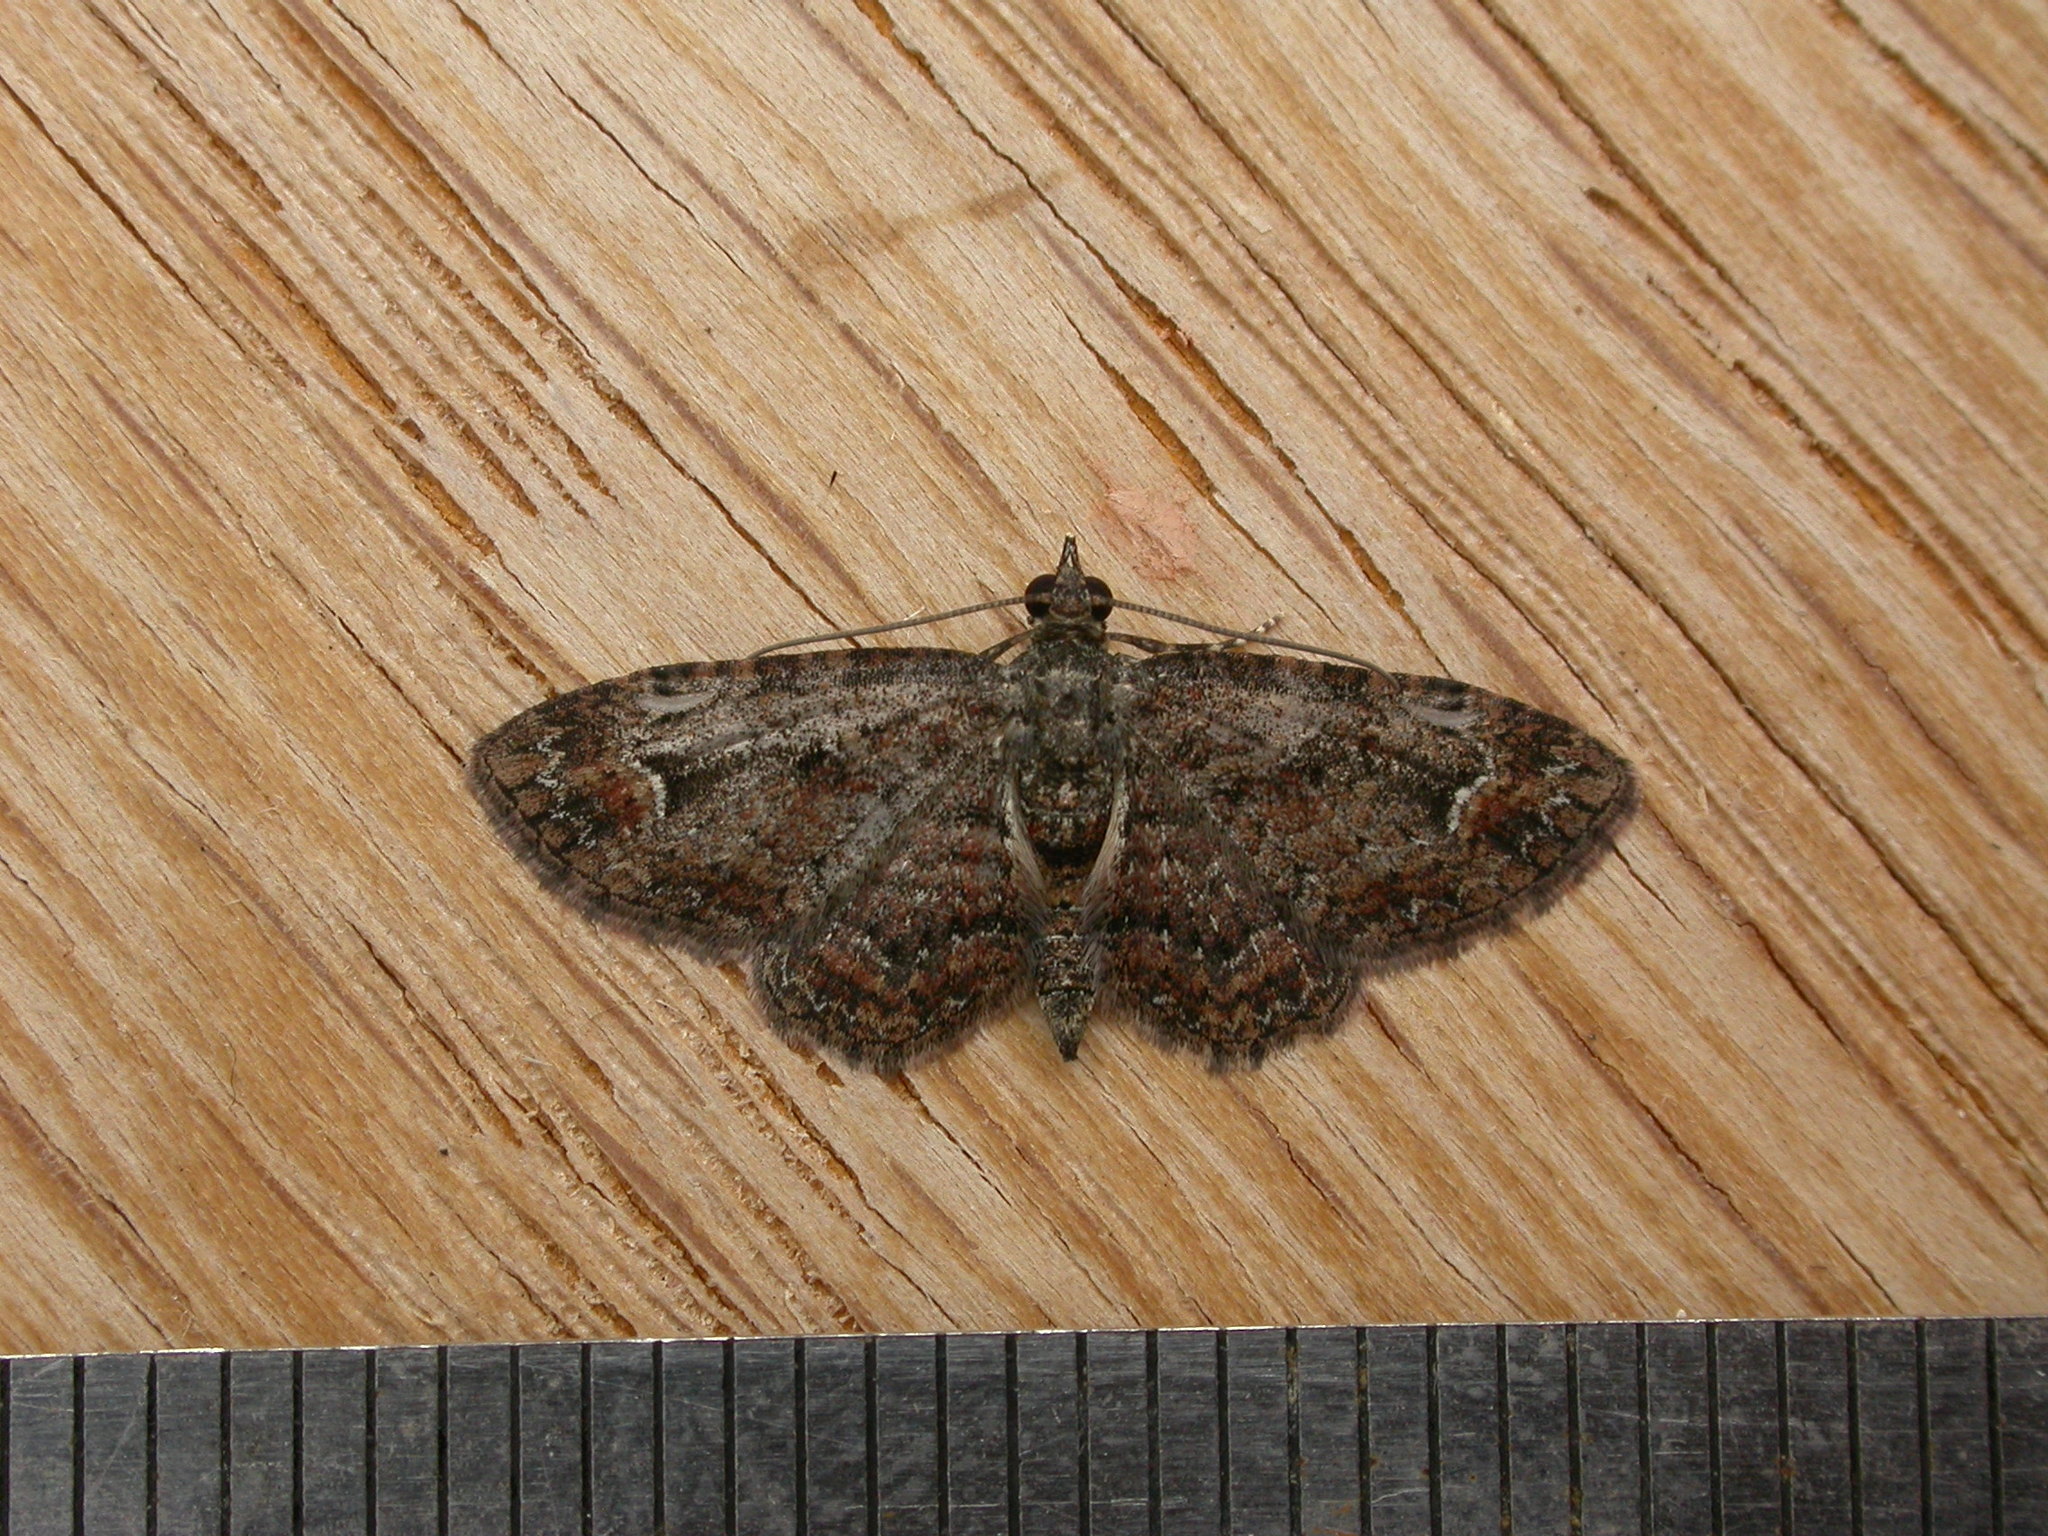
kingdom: Animalia
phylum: Arthropoda
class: Insecta
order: Lepidoptera
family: Geometridae
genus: Pasiphilodes
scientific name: Pasiphilodes testulata
